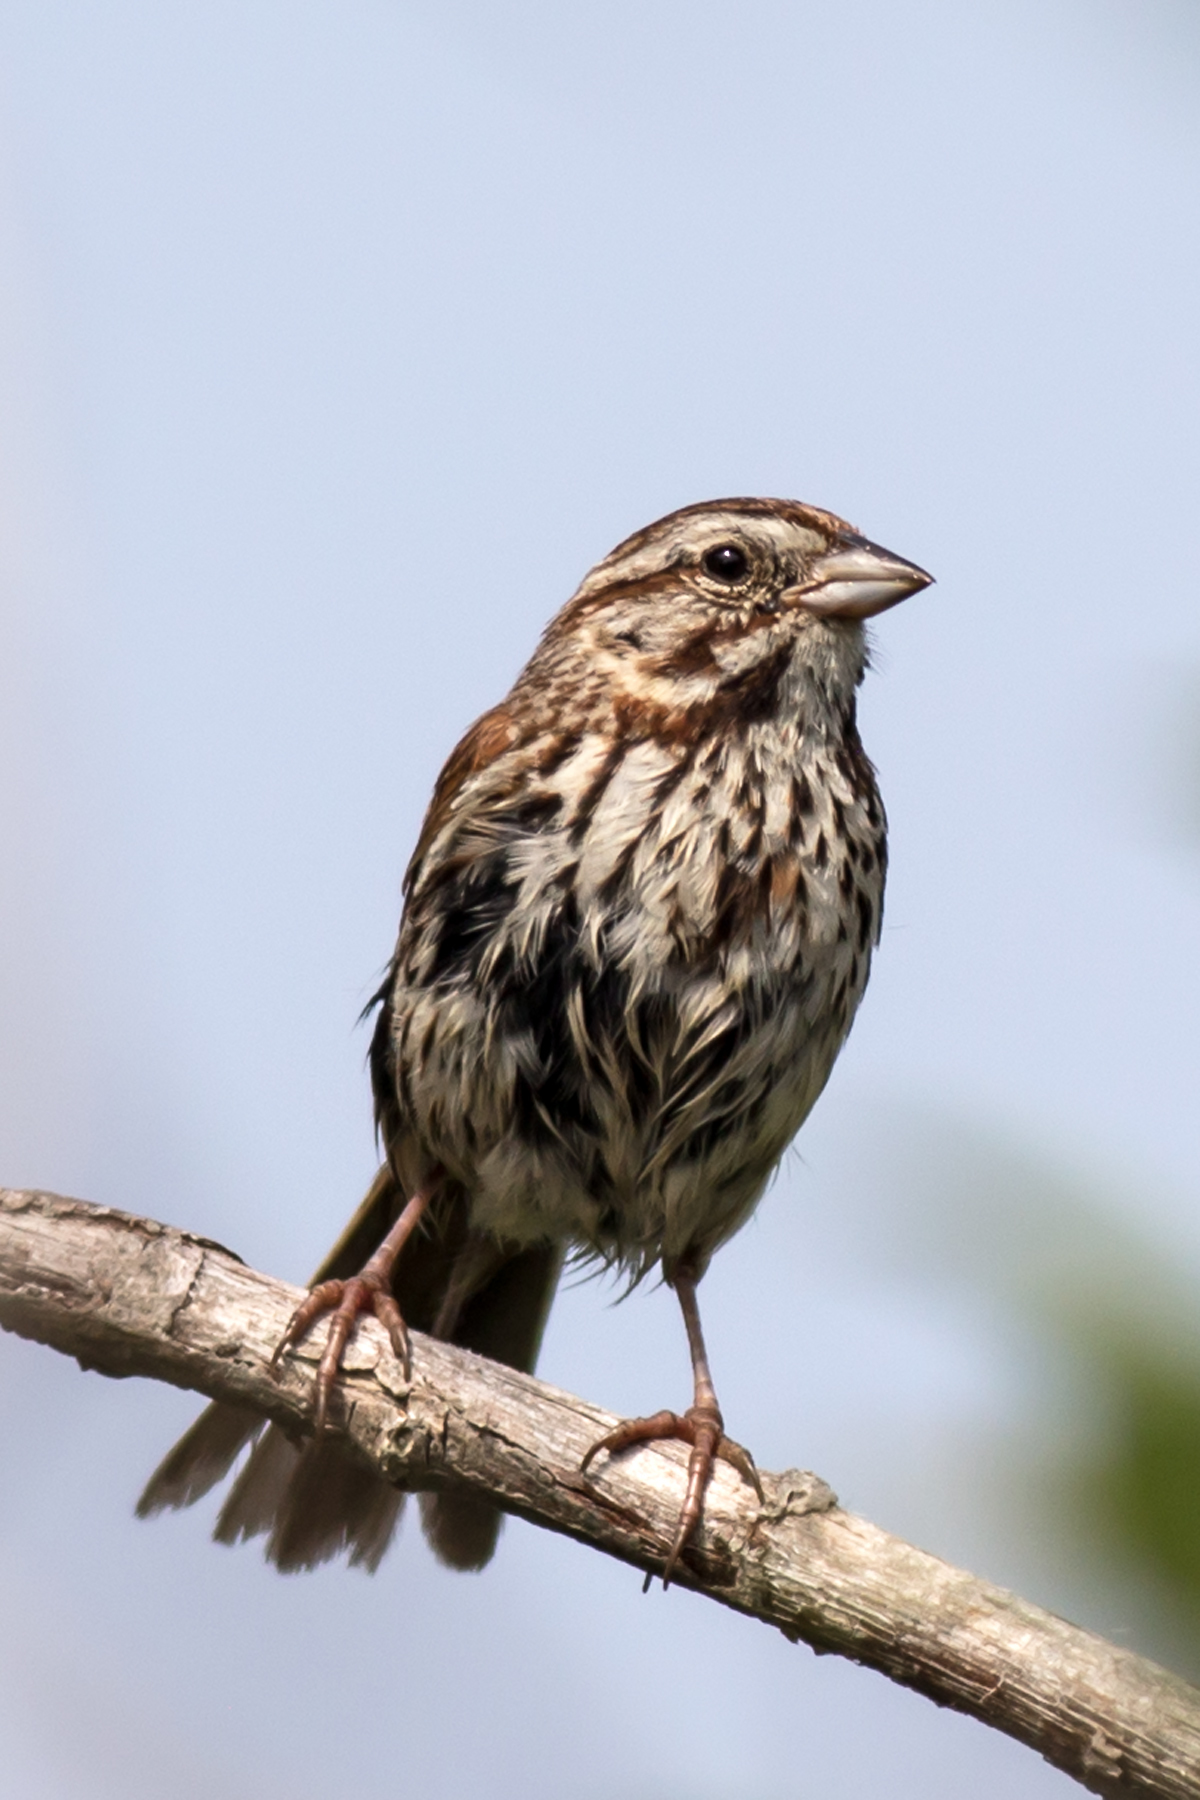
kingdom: Animalia
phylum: Chordata
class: Aves
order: Passeriformes
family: Passerellidae
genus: Melospiza
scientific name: Melospiza melodia
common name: Song sparrow
